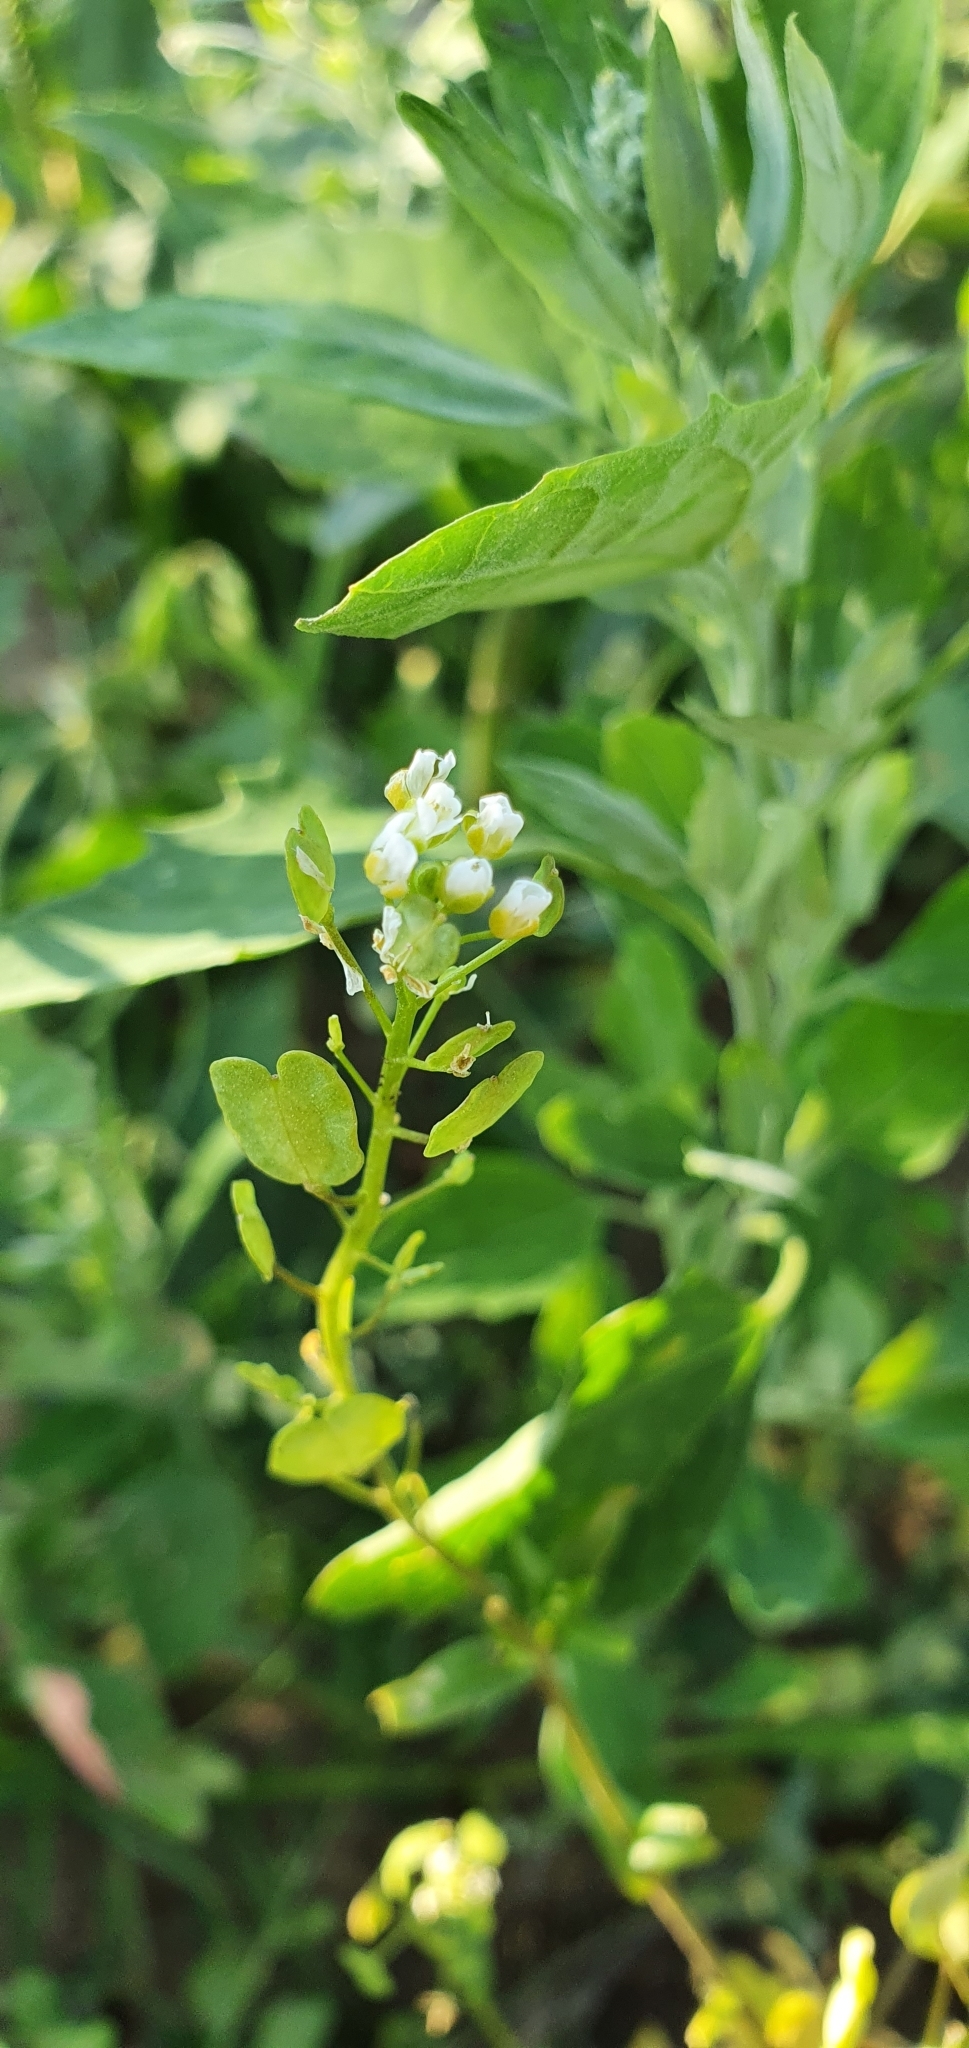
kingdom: Plantae
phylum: Tracheophyta
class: Magnoliopsida
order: Brassicales
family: Brassicaceae
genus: Thlaspi
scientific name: Thlaspi arvense
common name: Field pennycress
